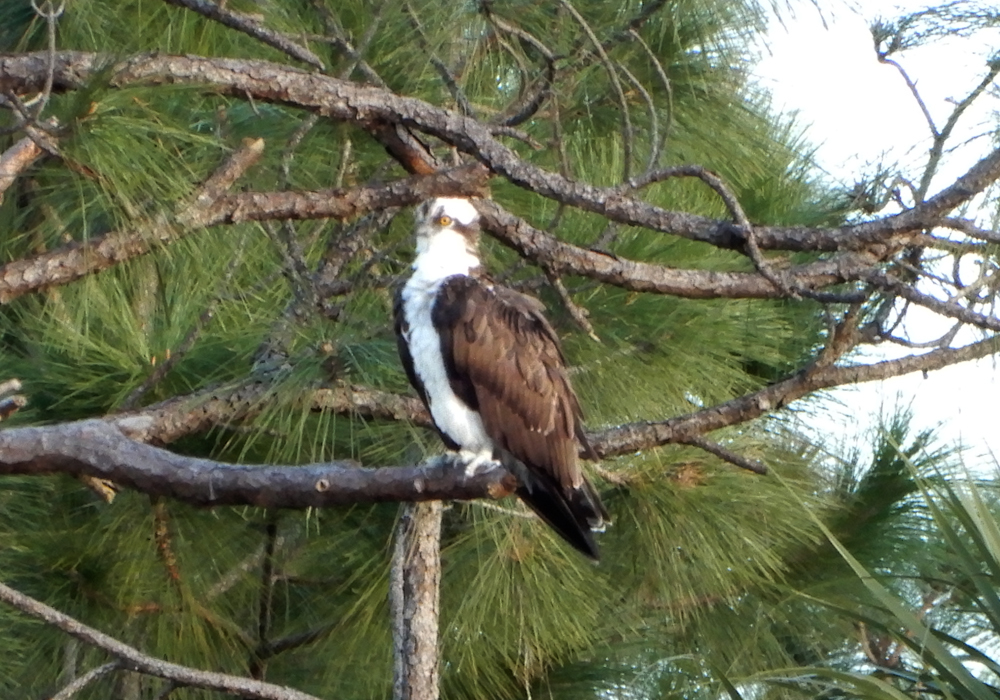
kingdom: Animalia
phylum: Chordata
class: Aves
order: Accipitriformes
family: Pandionidae
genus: Pandion
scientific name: Pandion haliaetus
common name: Osprey
